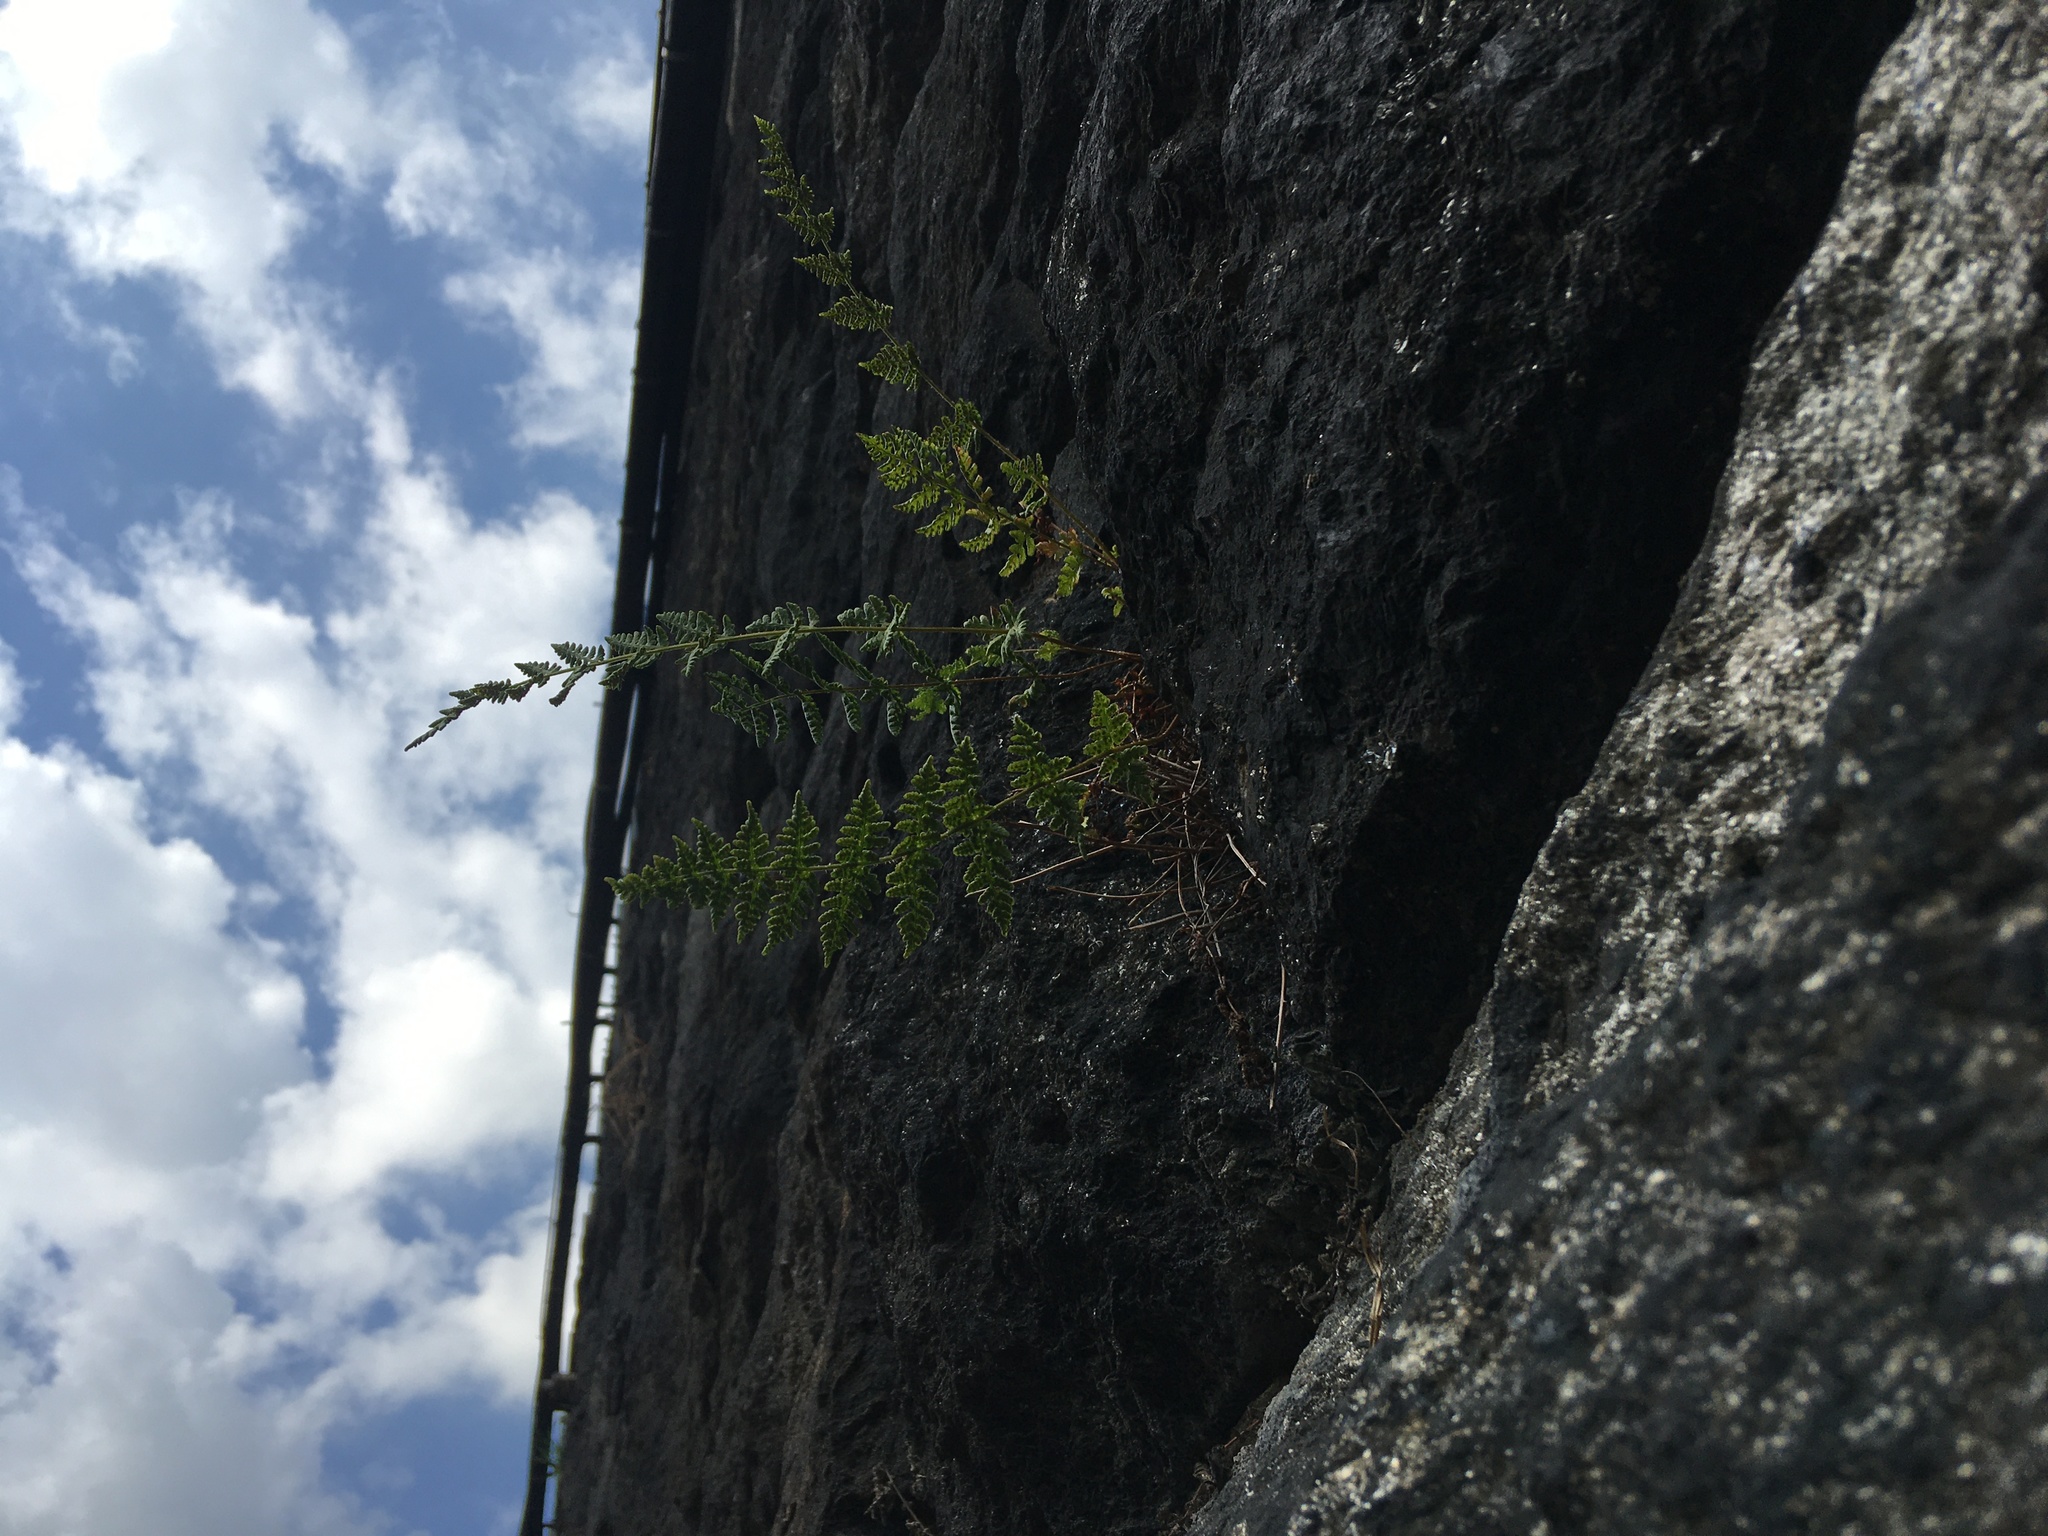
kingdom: Plantae
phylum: Tracheophyta
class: Polypodiopsida
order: Polypodiales
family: Woodsiaceae
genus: Physematium
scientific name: Physematium obtusum
